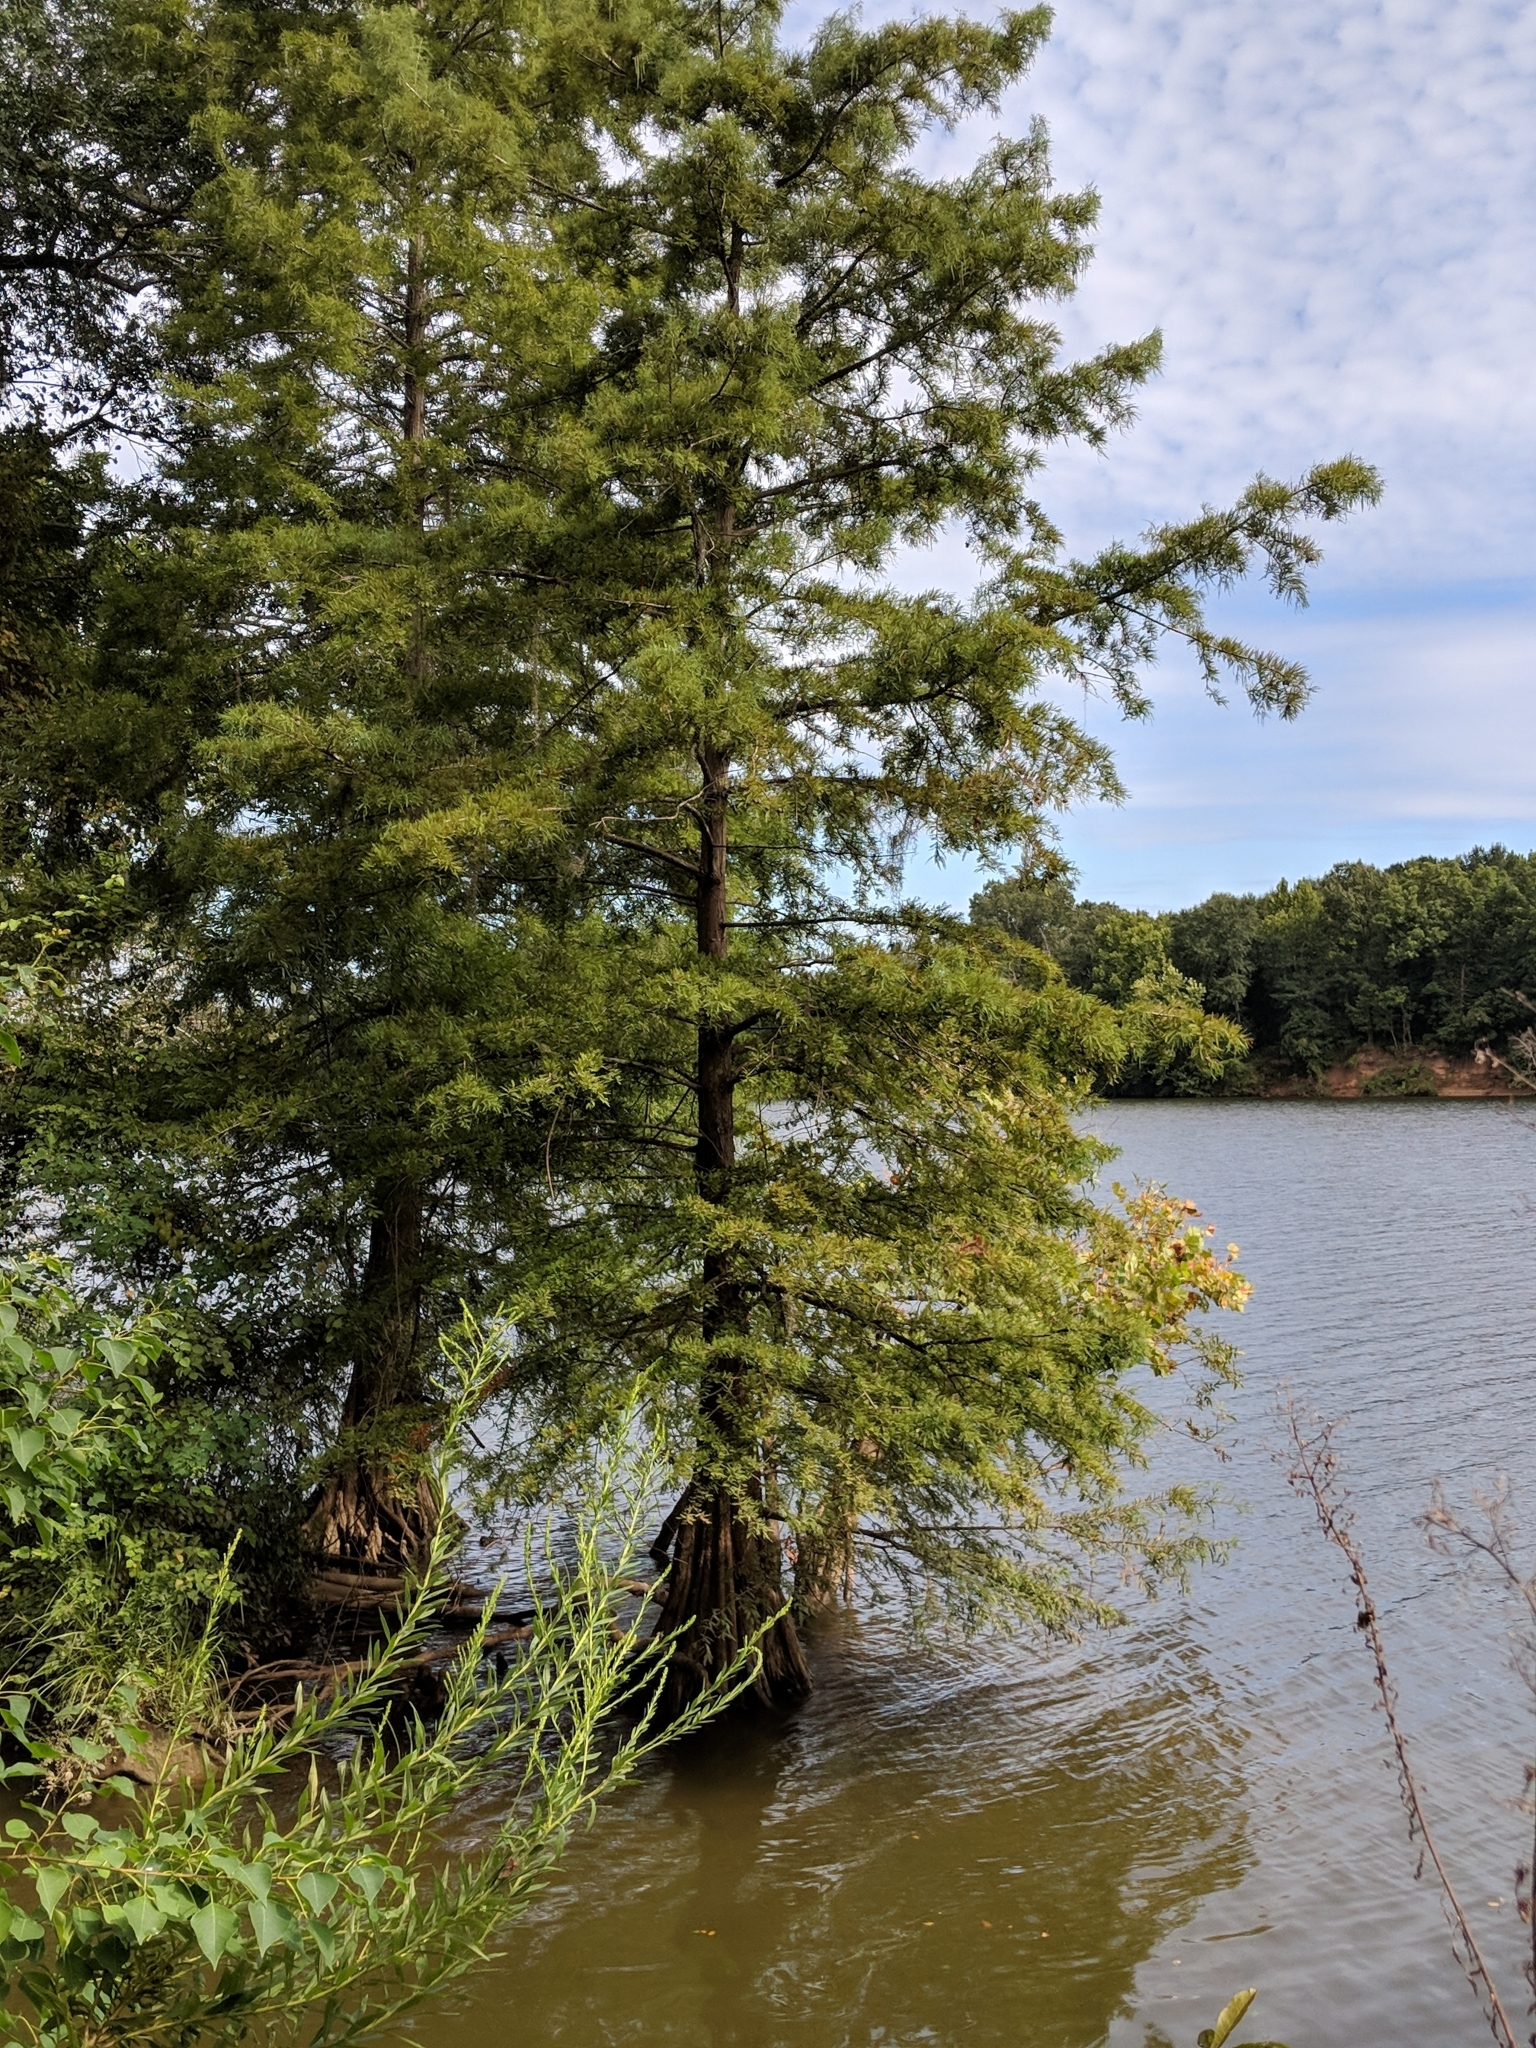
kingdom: Plantae
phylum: Tracheophyta
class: Pinopsida
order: Pinales
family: Cupressaceae
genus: Taxodium
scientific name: Taxodium distichum
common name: Bald cypress
